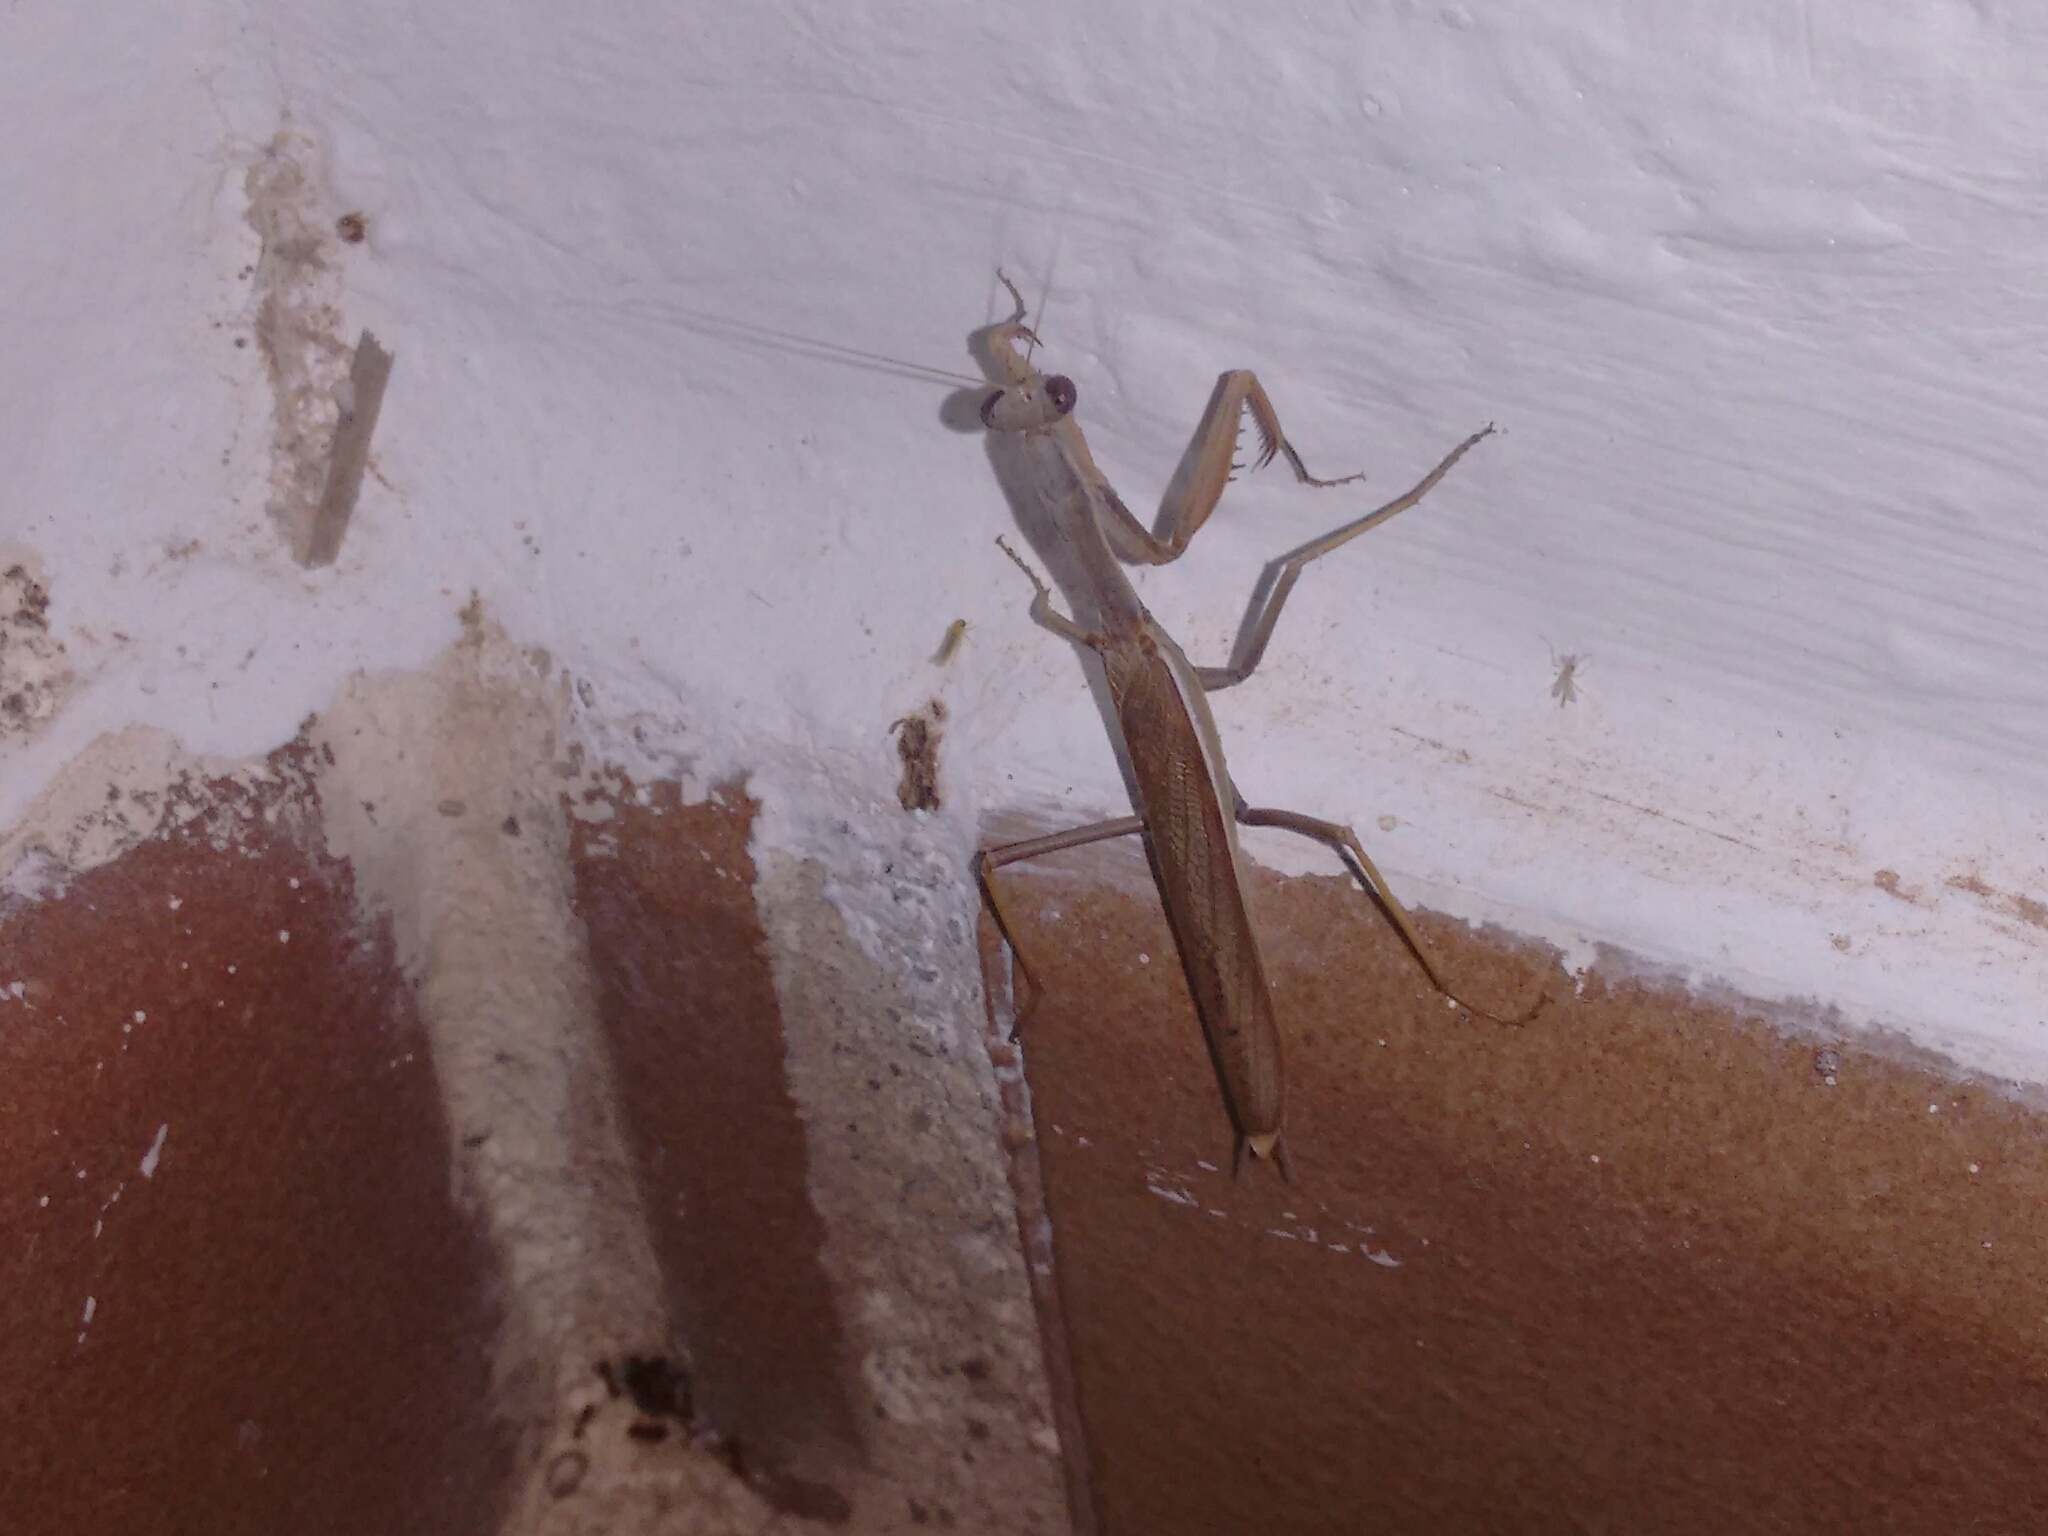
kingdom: Animalia
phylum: Arthropoda
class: Insecta
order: Mantodea
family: Eremiaphilidae
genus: Iris
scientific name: Iris oratoria
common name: Mediterranean mantis
